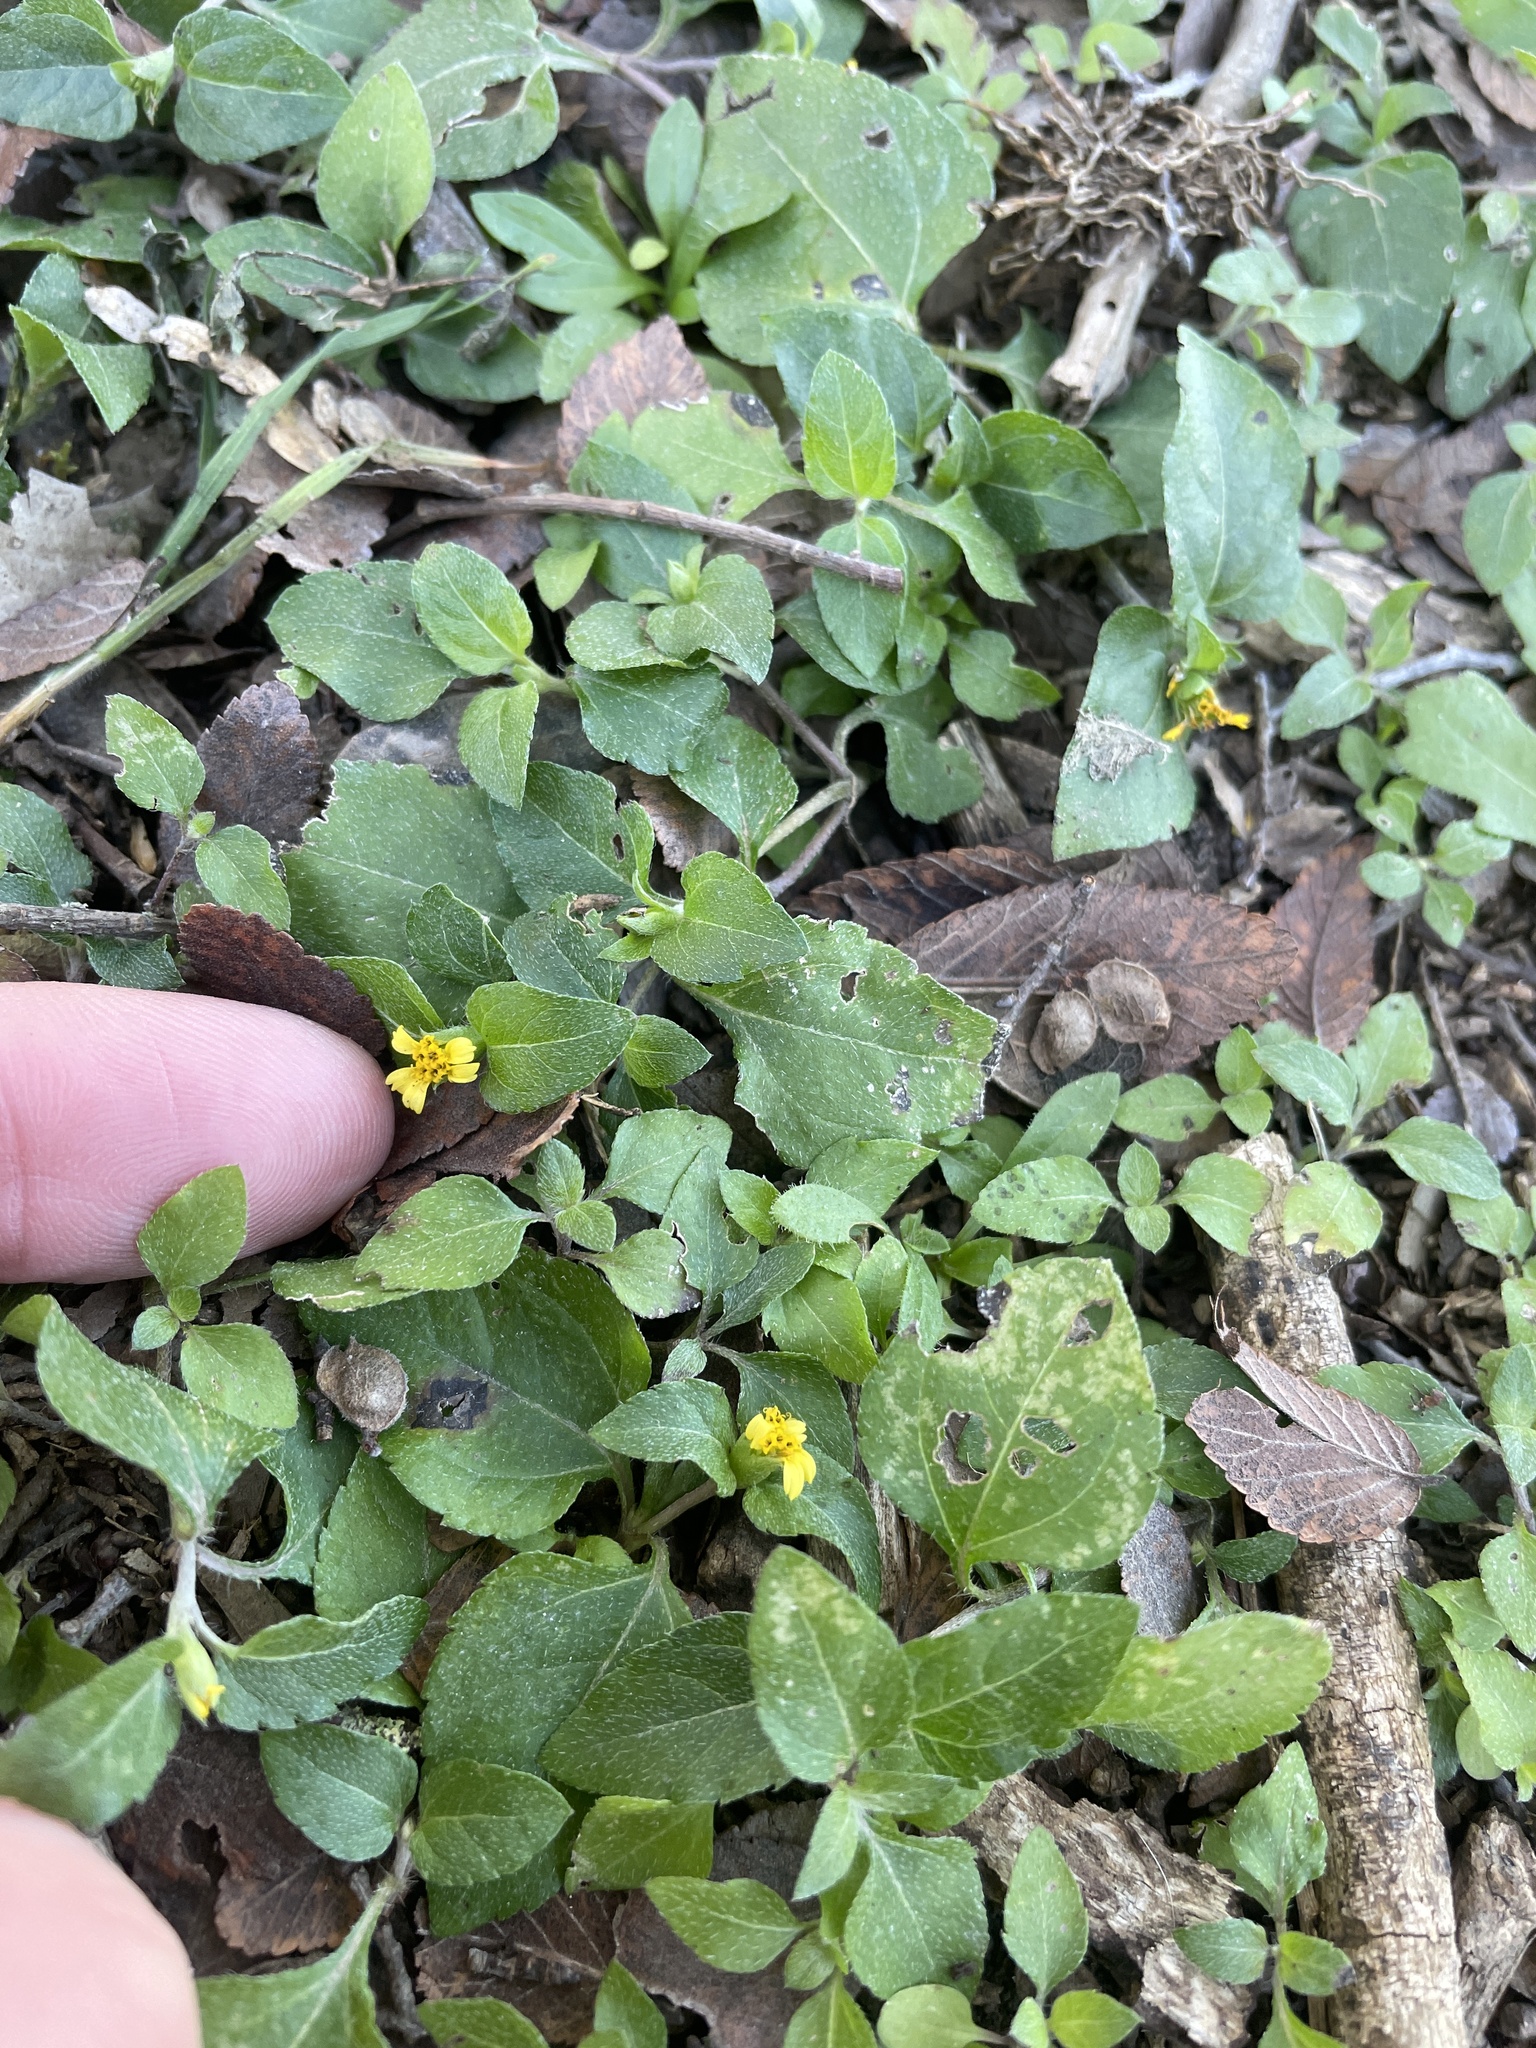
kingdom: Plantae
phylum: Tracheophyta
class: Magnoliopsida
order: Asterales
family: Asteraceae
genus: Calyptocarpus
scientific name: Calyptocarpus vialis
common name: Straggler daisy
